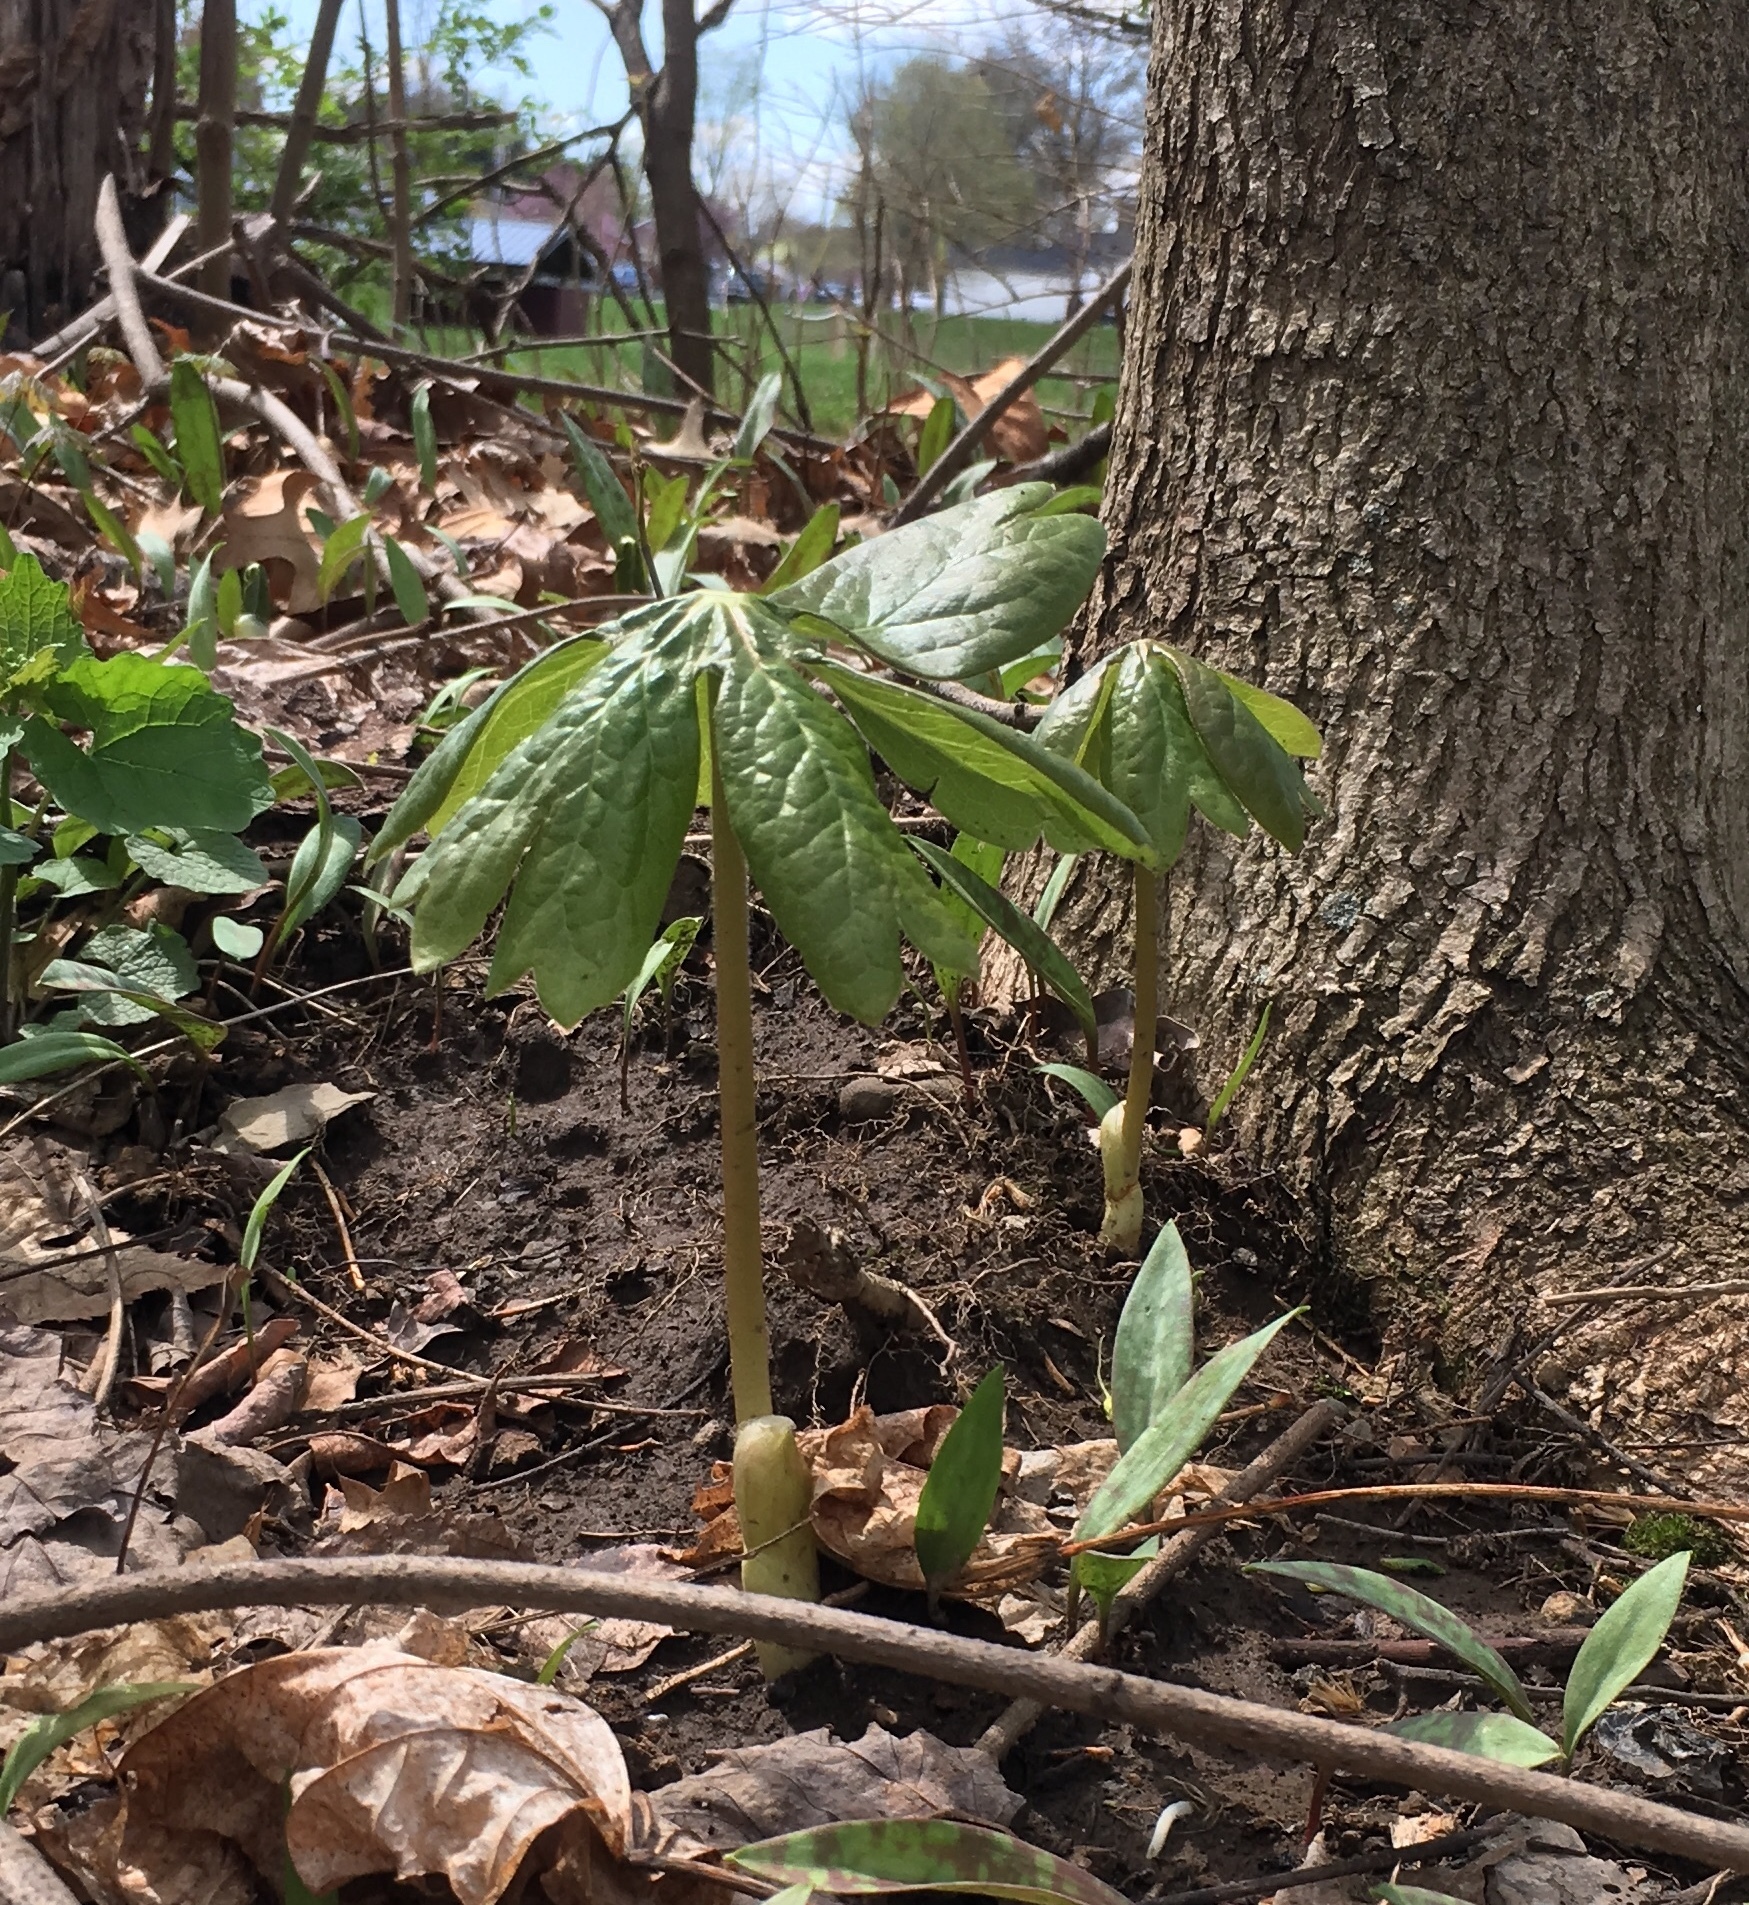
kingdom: Plantae
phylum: Tracheophyta
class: Magnoliopsida
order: Ranunculales
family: Berberidaceae
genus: Podophyllum
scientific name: Podophyllum peltatum
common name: Wild mandrake
